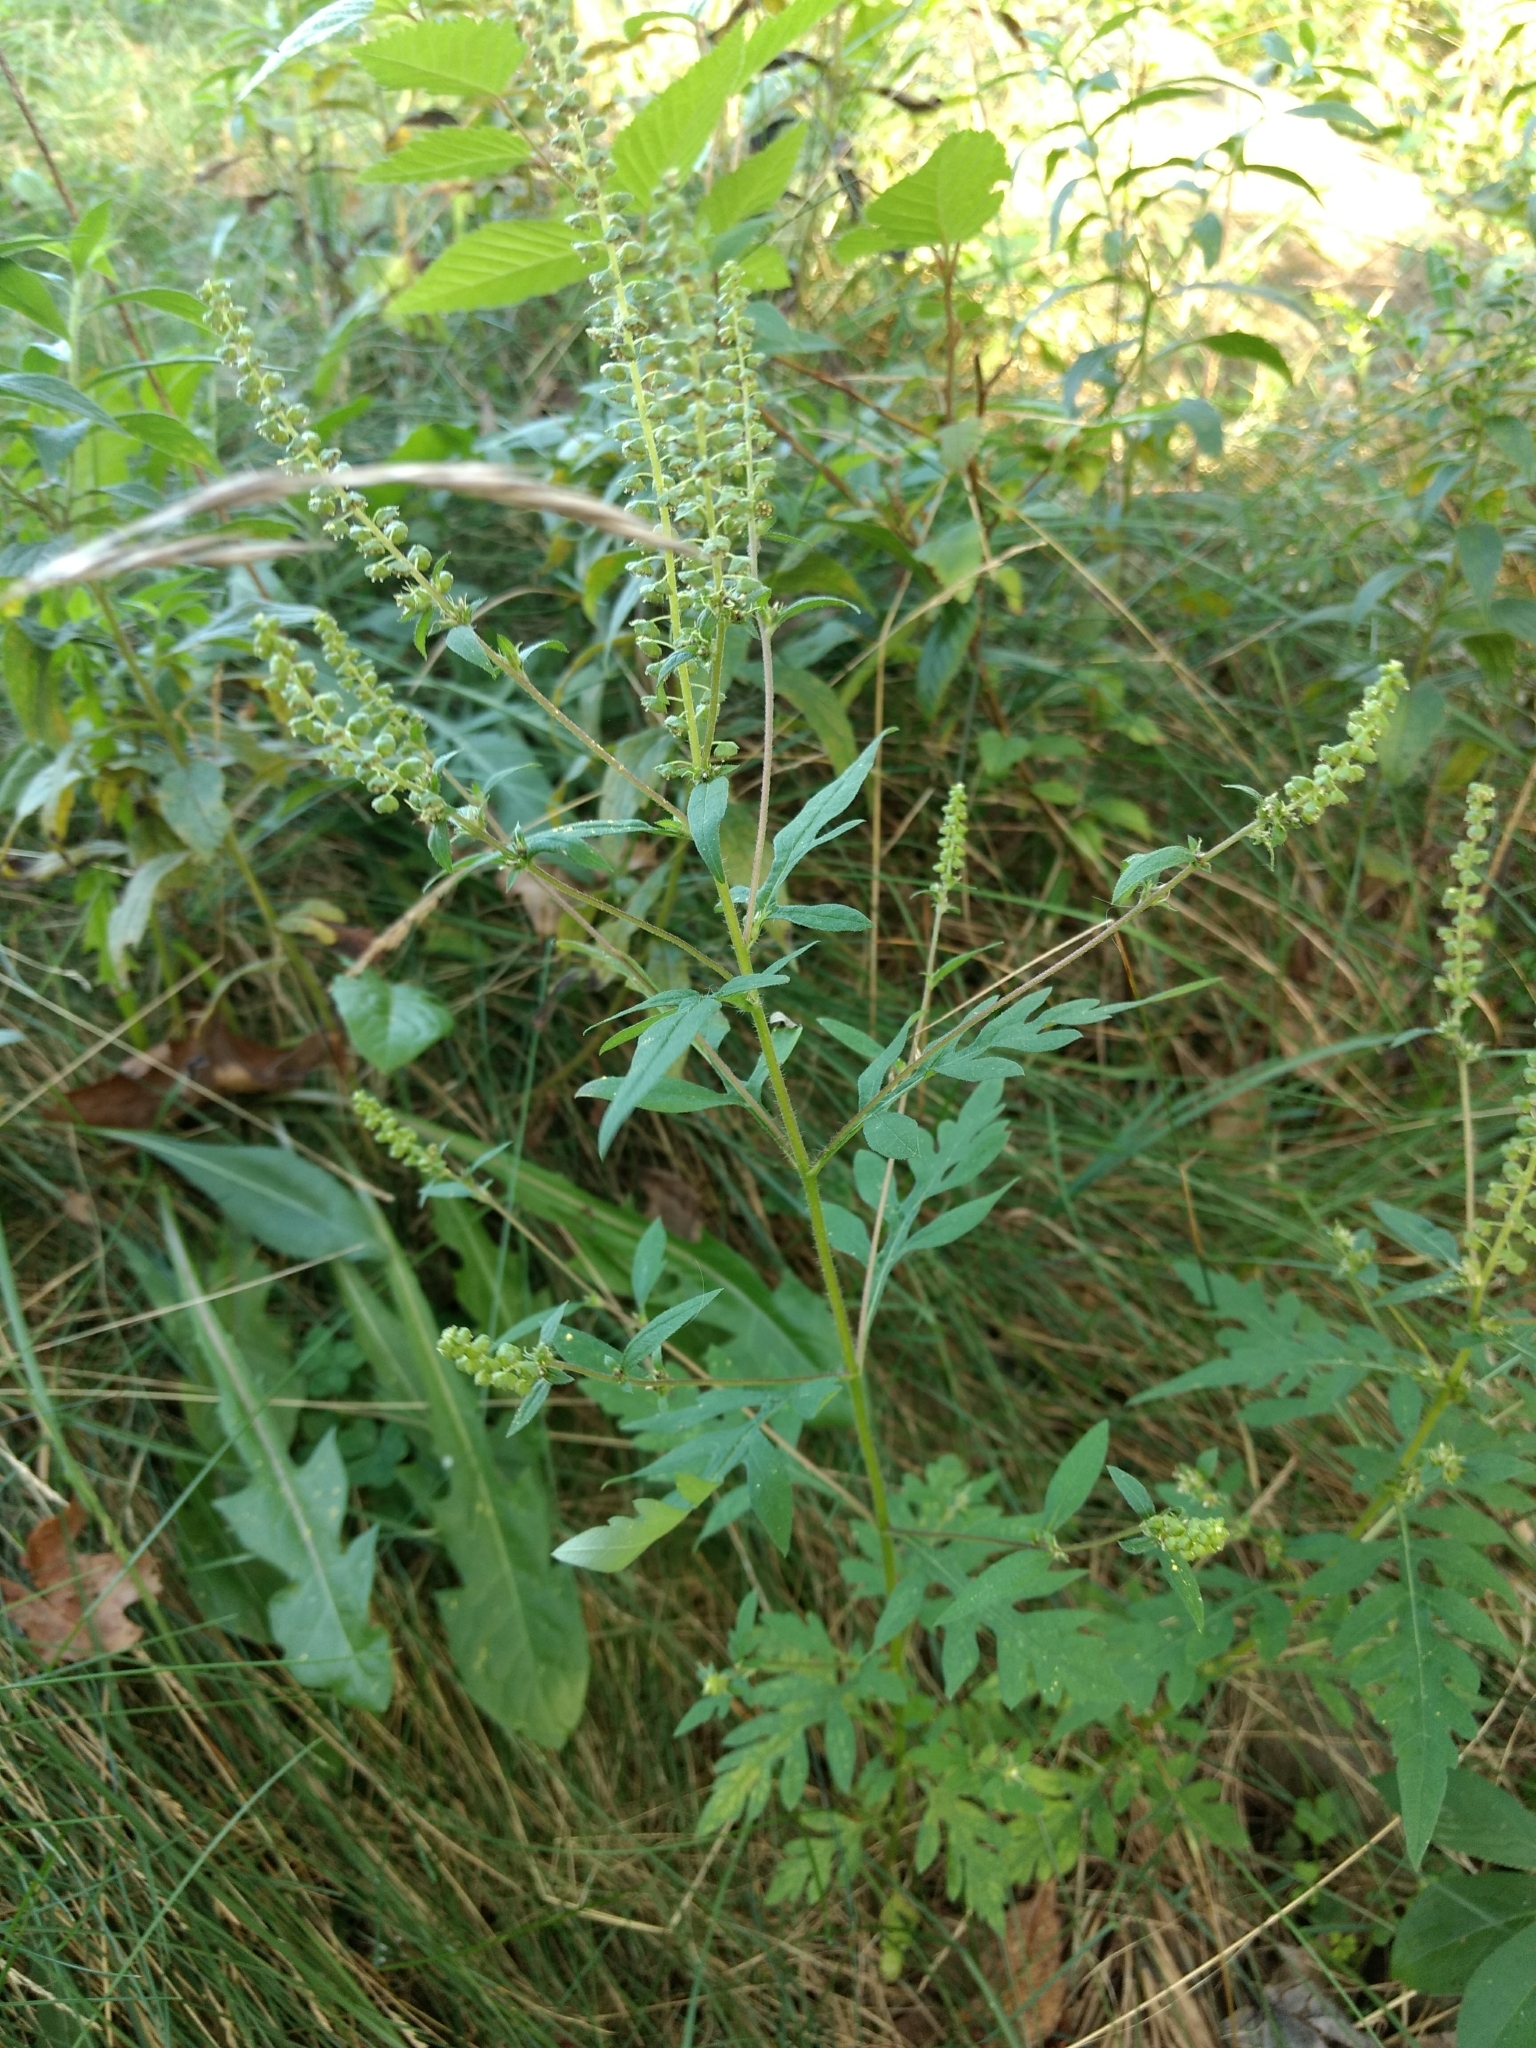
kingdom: Plantae
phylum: Tracheophyta
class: Magnoliopsida
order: Asterales
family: Asteraceae
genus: Ambrosia
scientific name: Ambrosia artemisiifolia
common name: Annual ragweed
